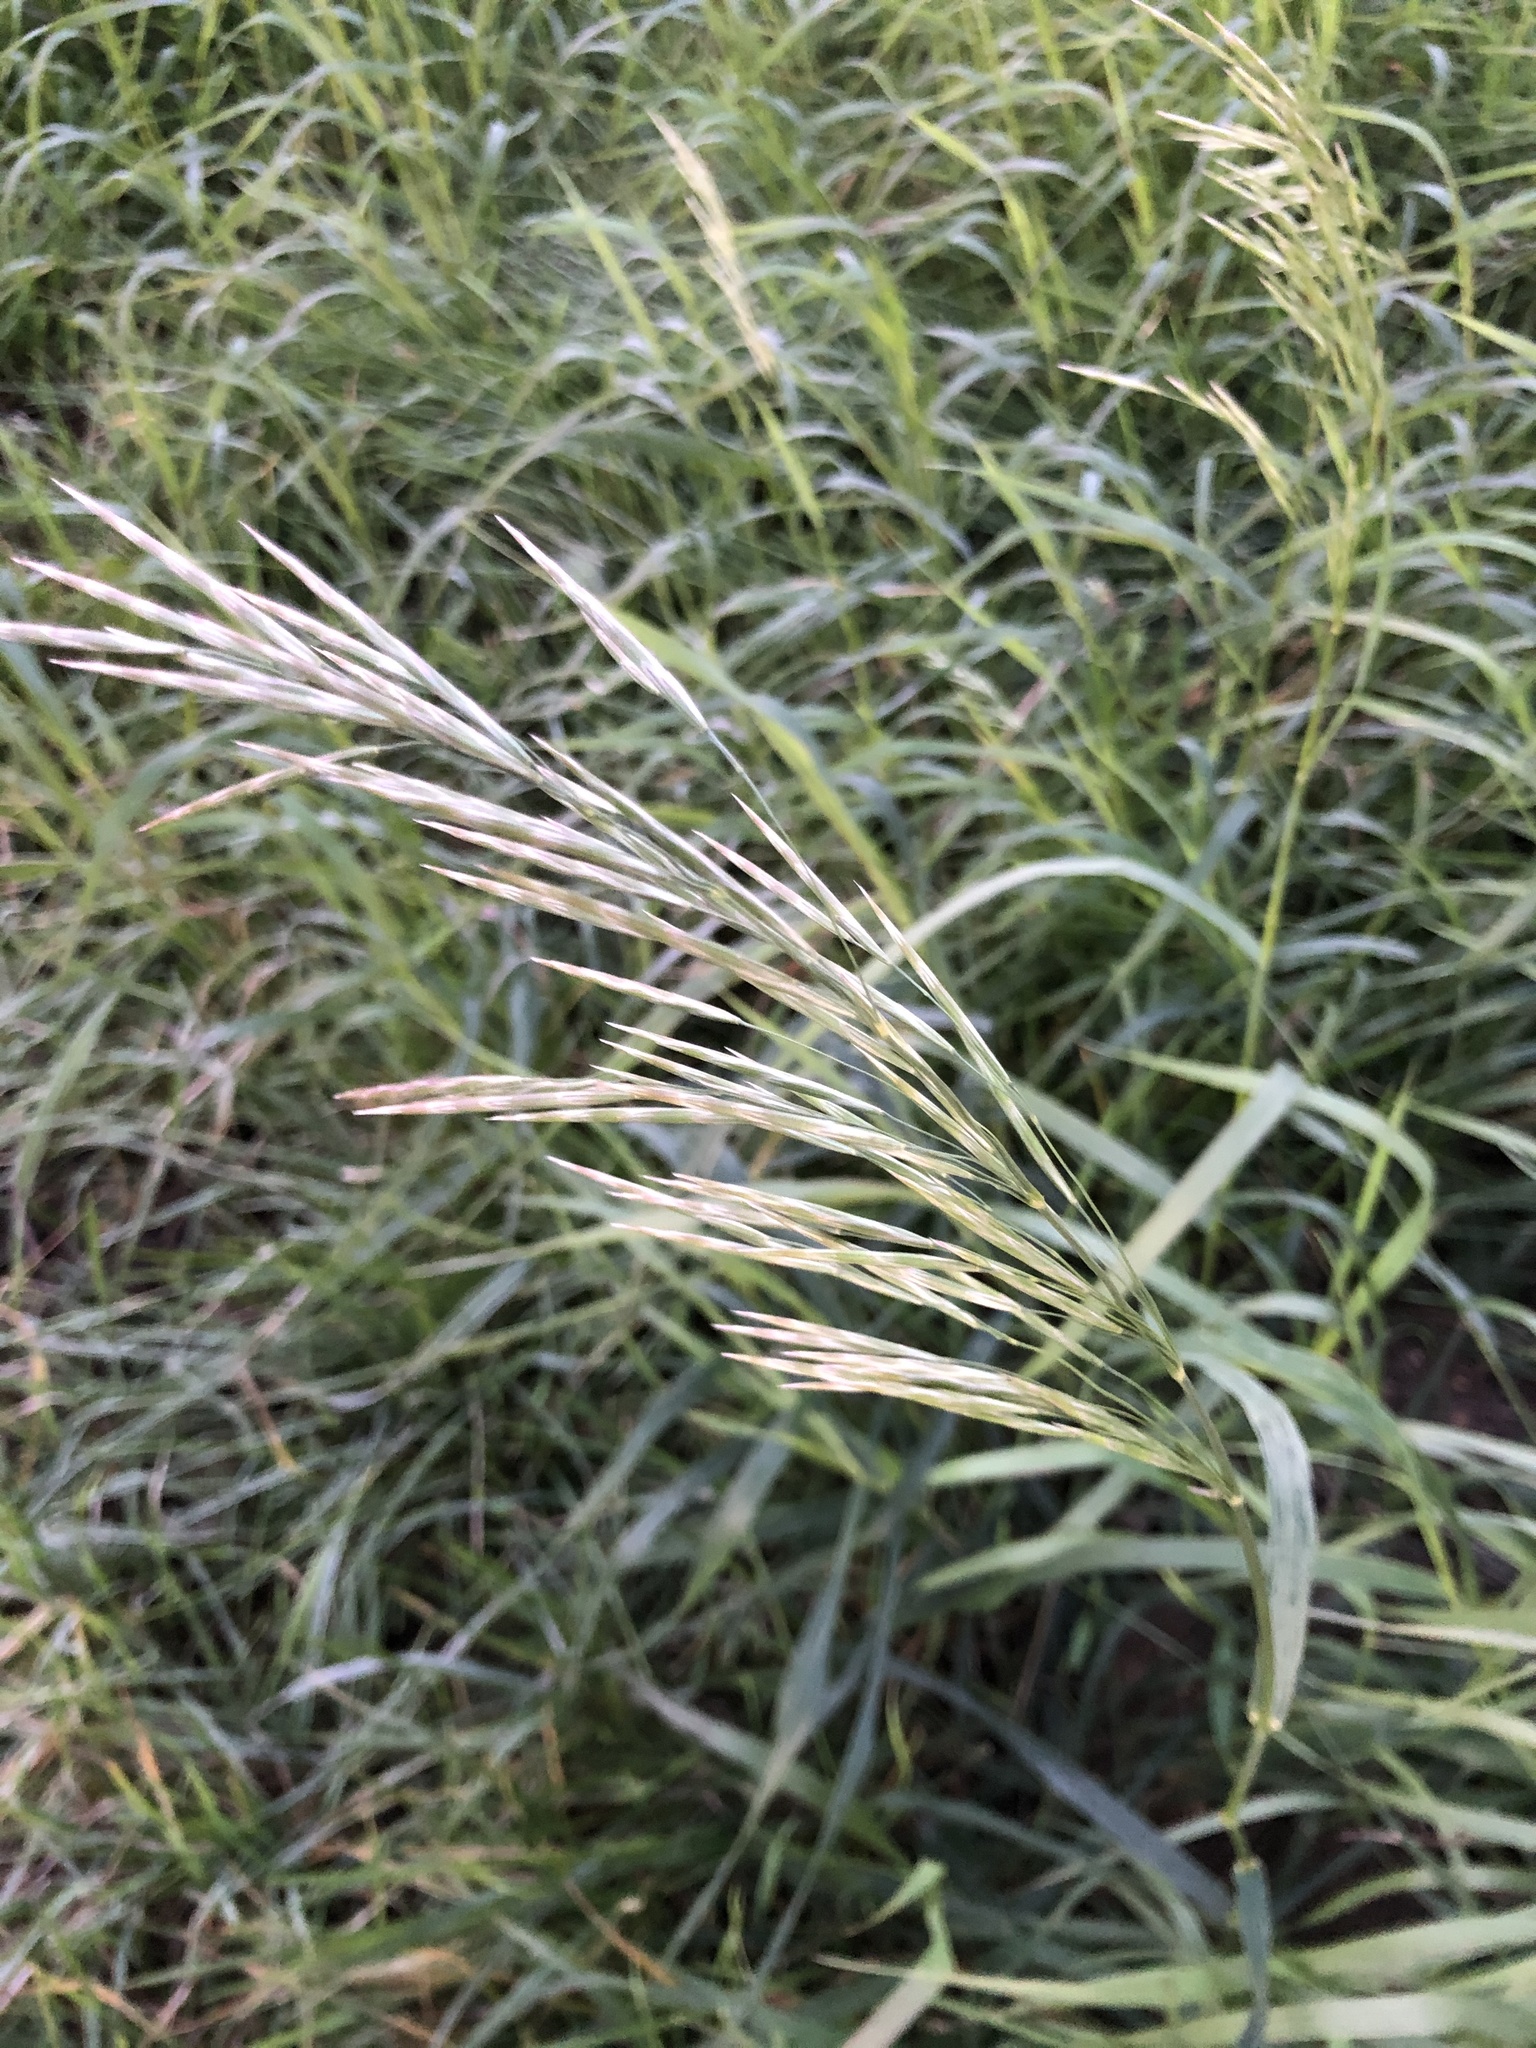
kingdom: Plantae
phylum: Tracheophyta
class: Liliopsida
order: Poales
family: Poaceae
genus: Bromus
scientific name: Bromus inermis
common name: Smooth brome
